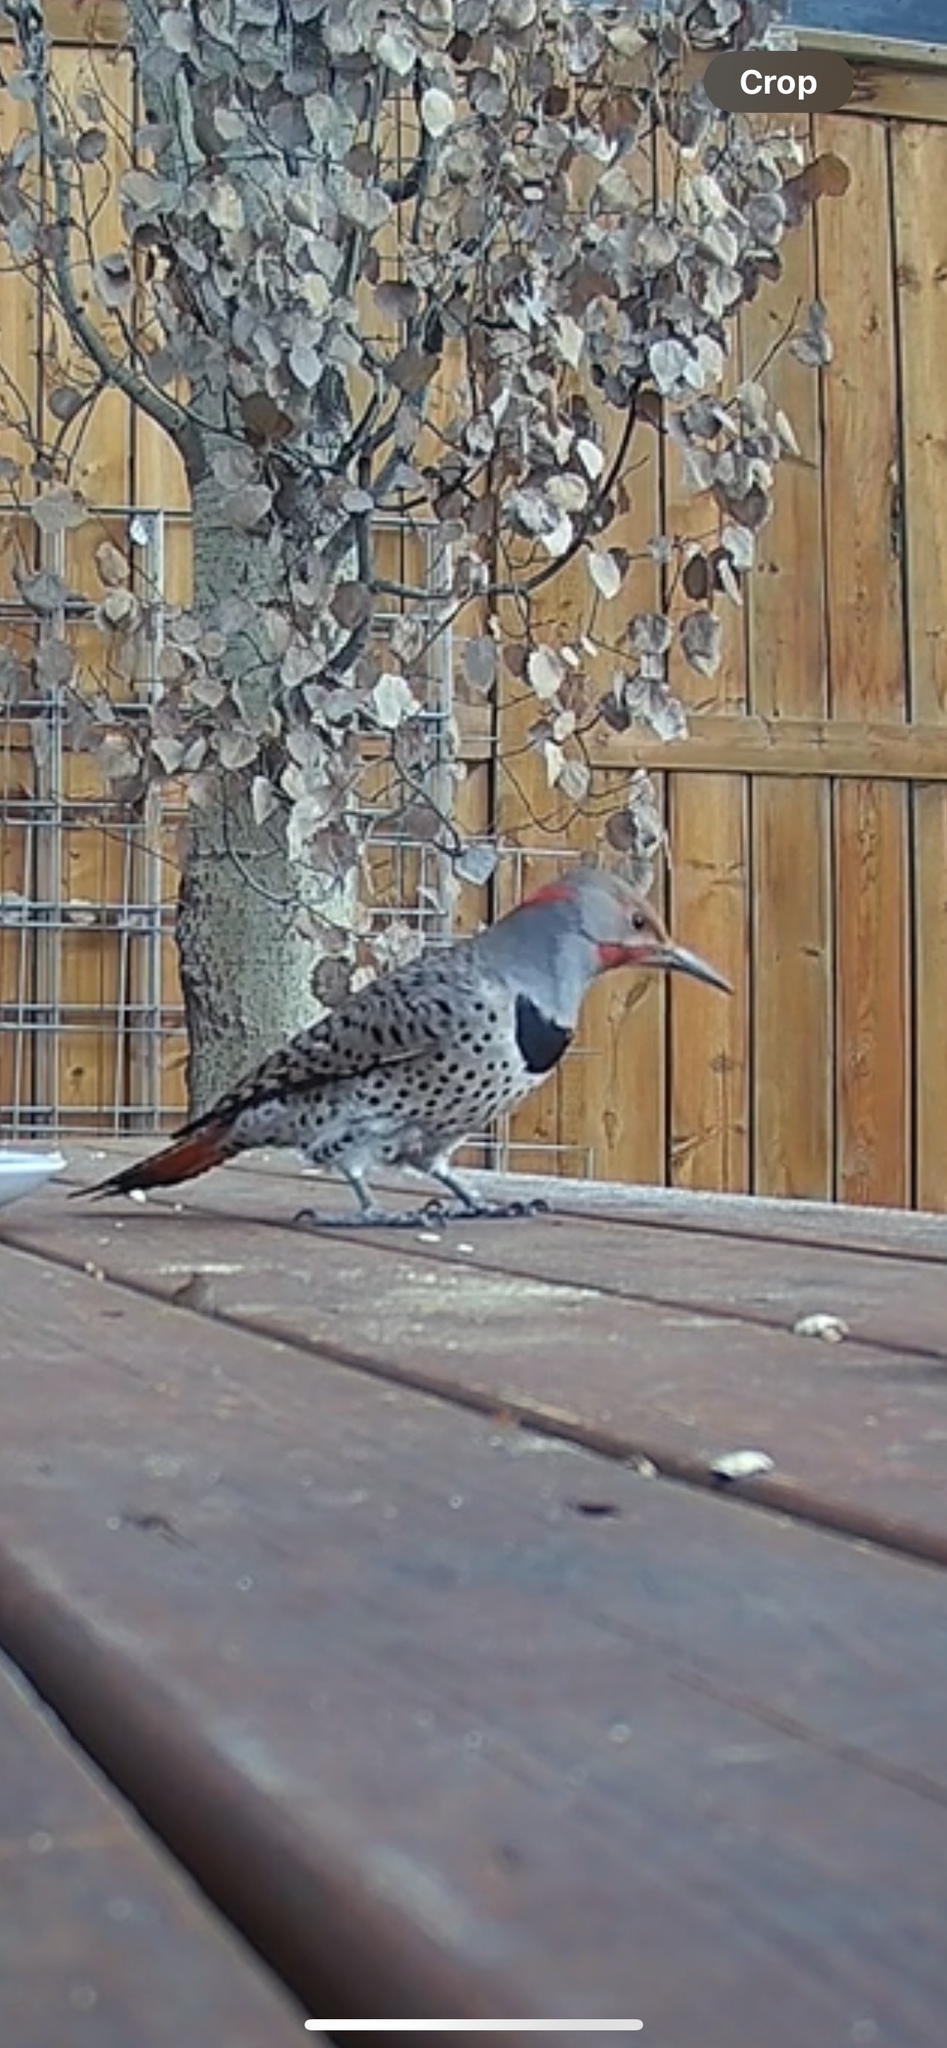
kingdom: Animalia
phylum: Chordata
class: Aves
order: Piciformes
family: Picidae
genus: Colaptes
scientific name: Colaptes
